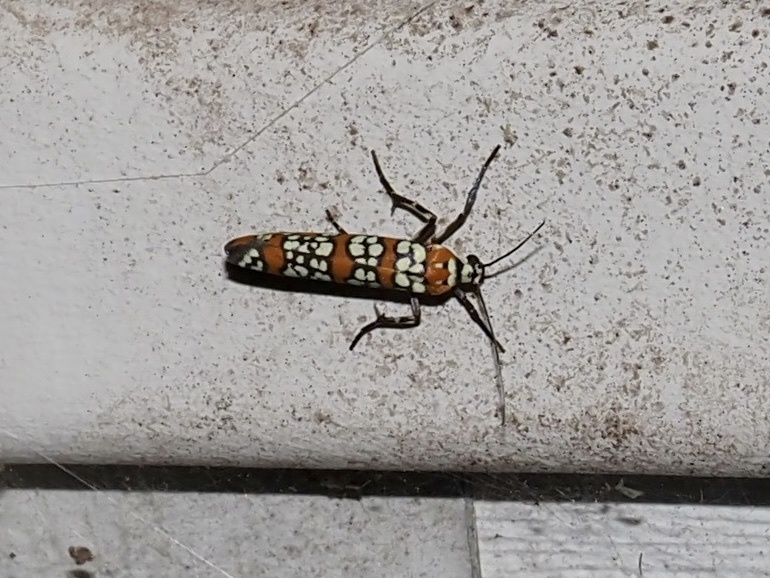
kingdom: Animalia
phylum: Arthropoda
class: Insecta
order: Lepidoptera
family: Attevidae
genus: Atteva
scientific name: Atteva punctella
